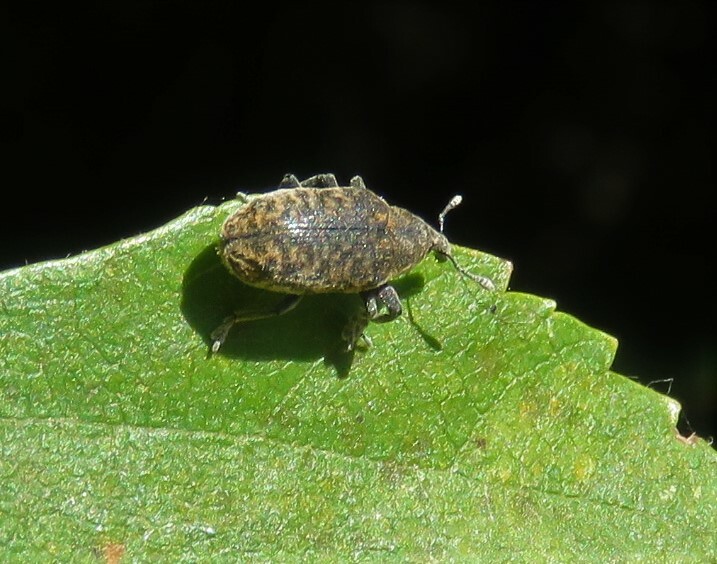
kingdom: Animalia
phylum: Arthropoda
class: Insecta
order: Coleoptera
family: Curculionidae
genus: Larinus
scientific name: Larinus carlinae
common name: Weevil
